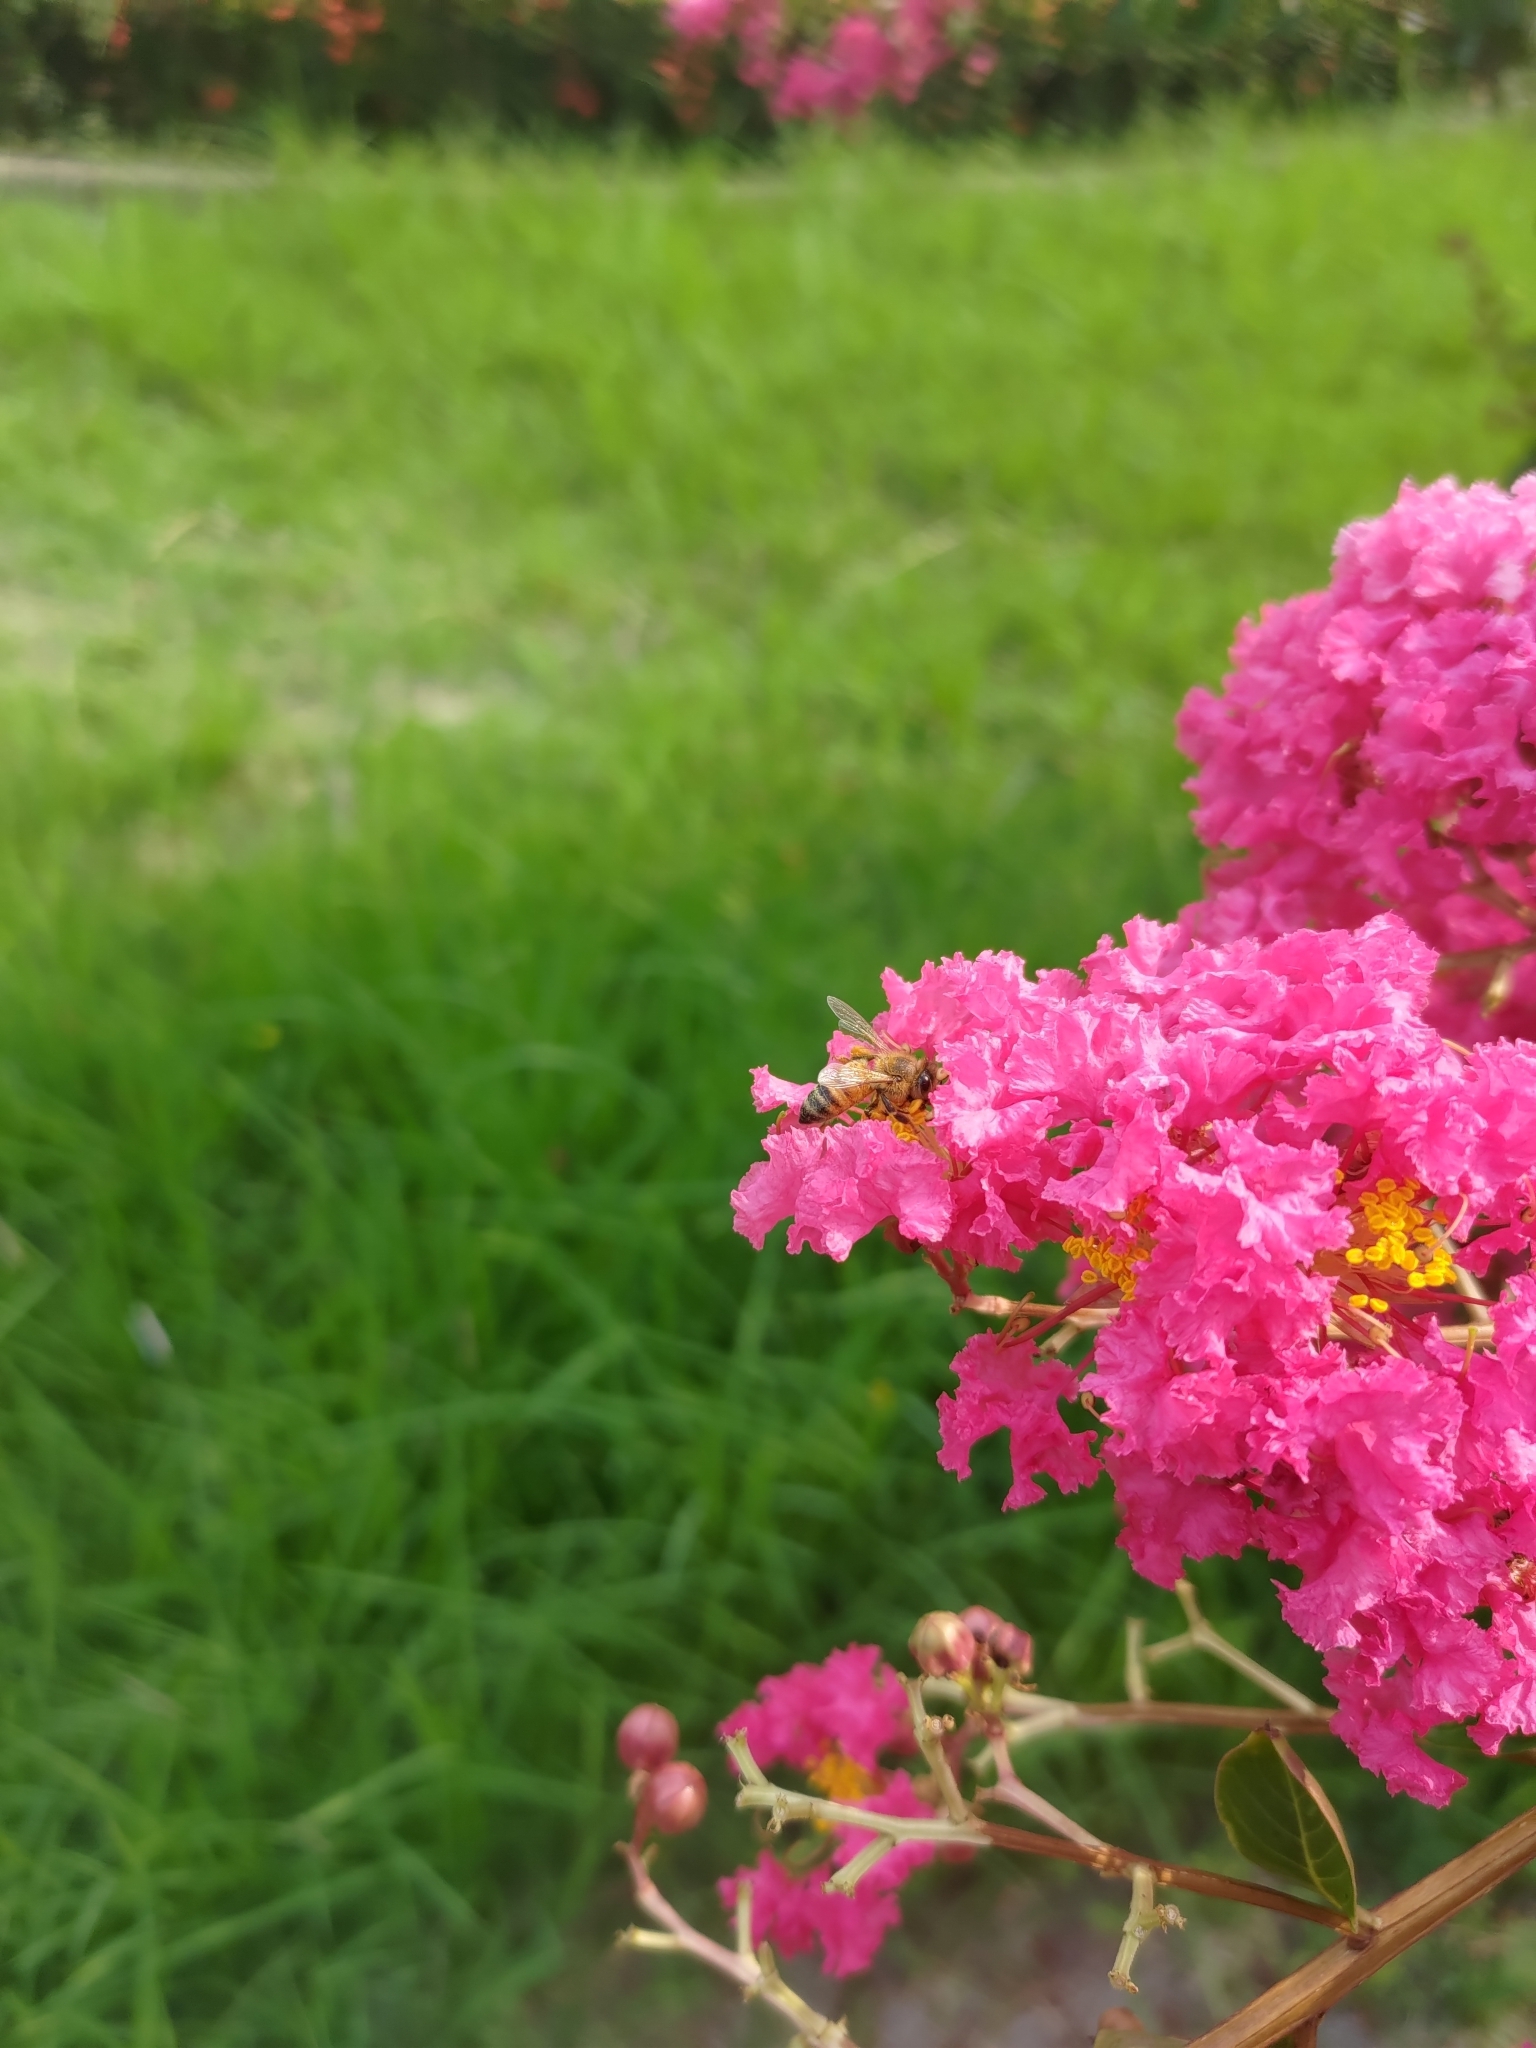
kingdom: Animalia
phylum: Arthropoda
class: Insecta
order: Hymenoptera
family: Apidae
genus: Apis
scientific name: Apis mellifera
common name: Honey bee
